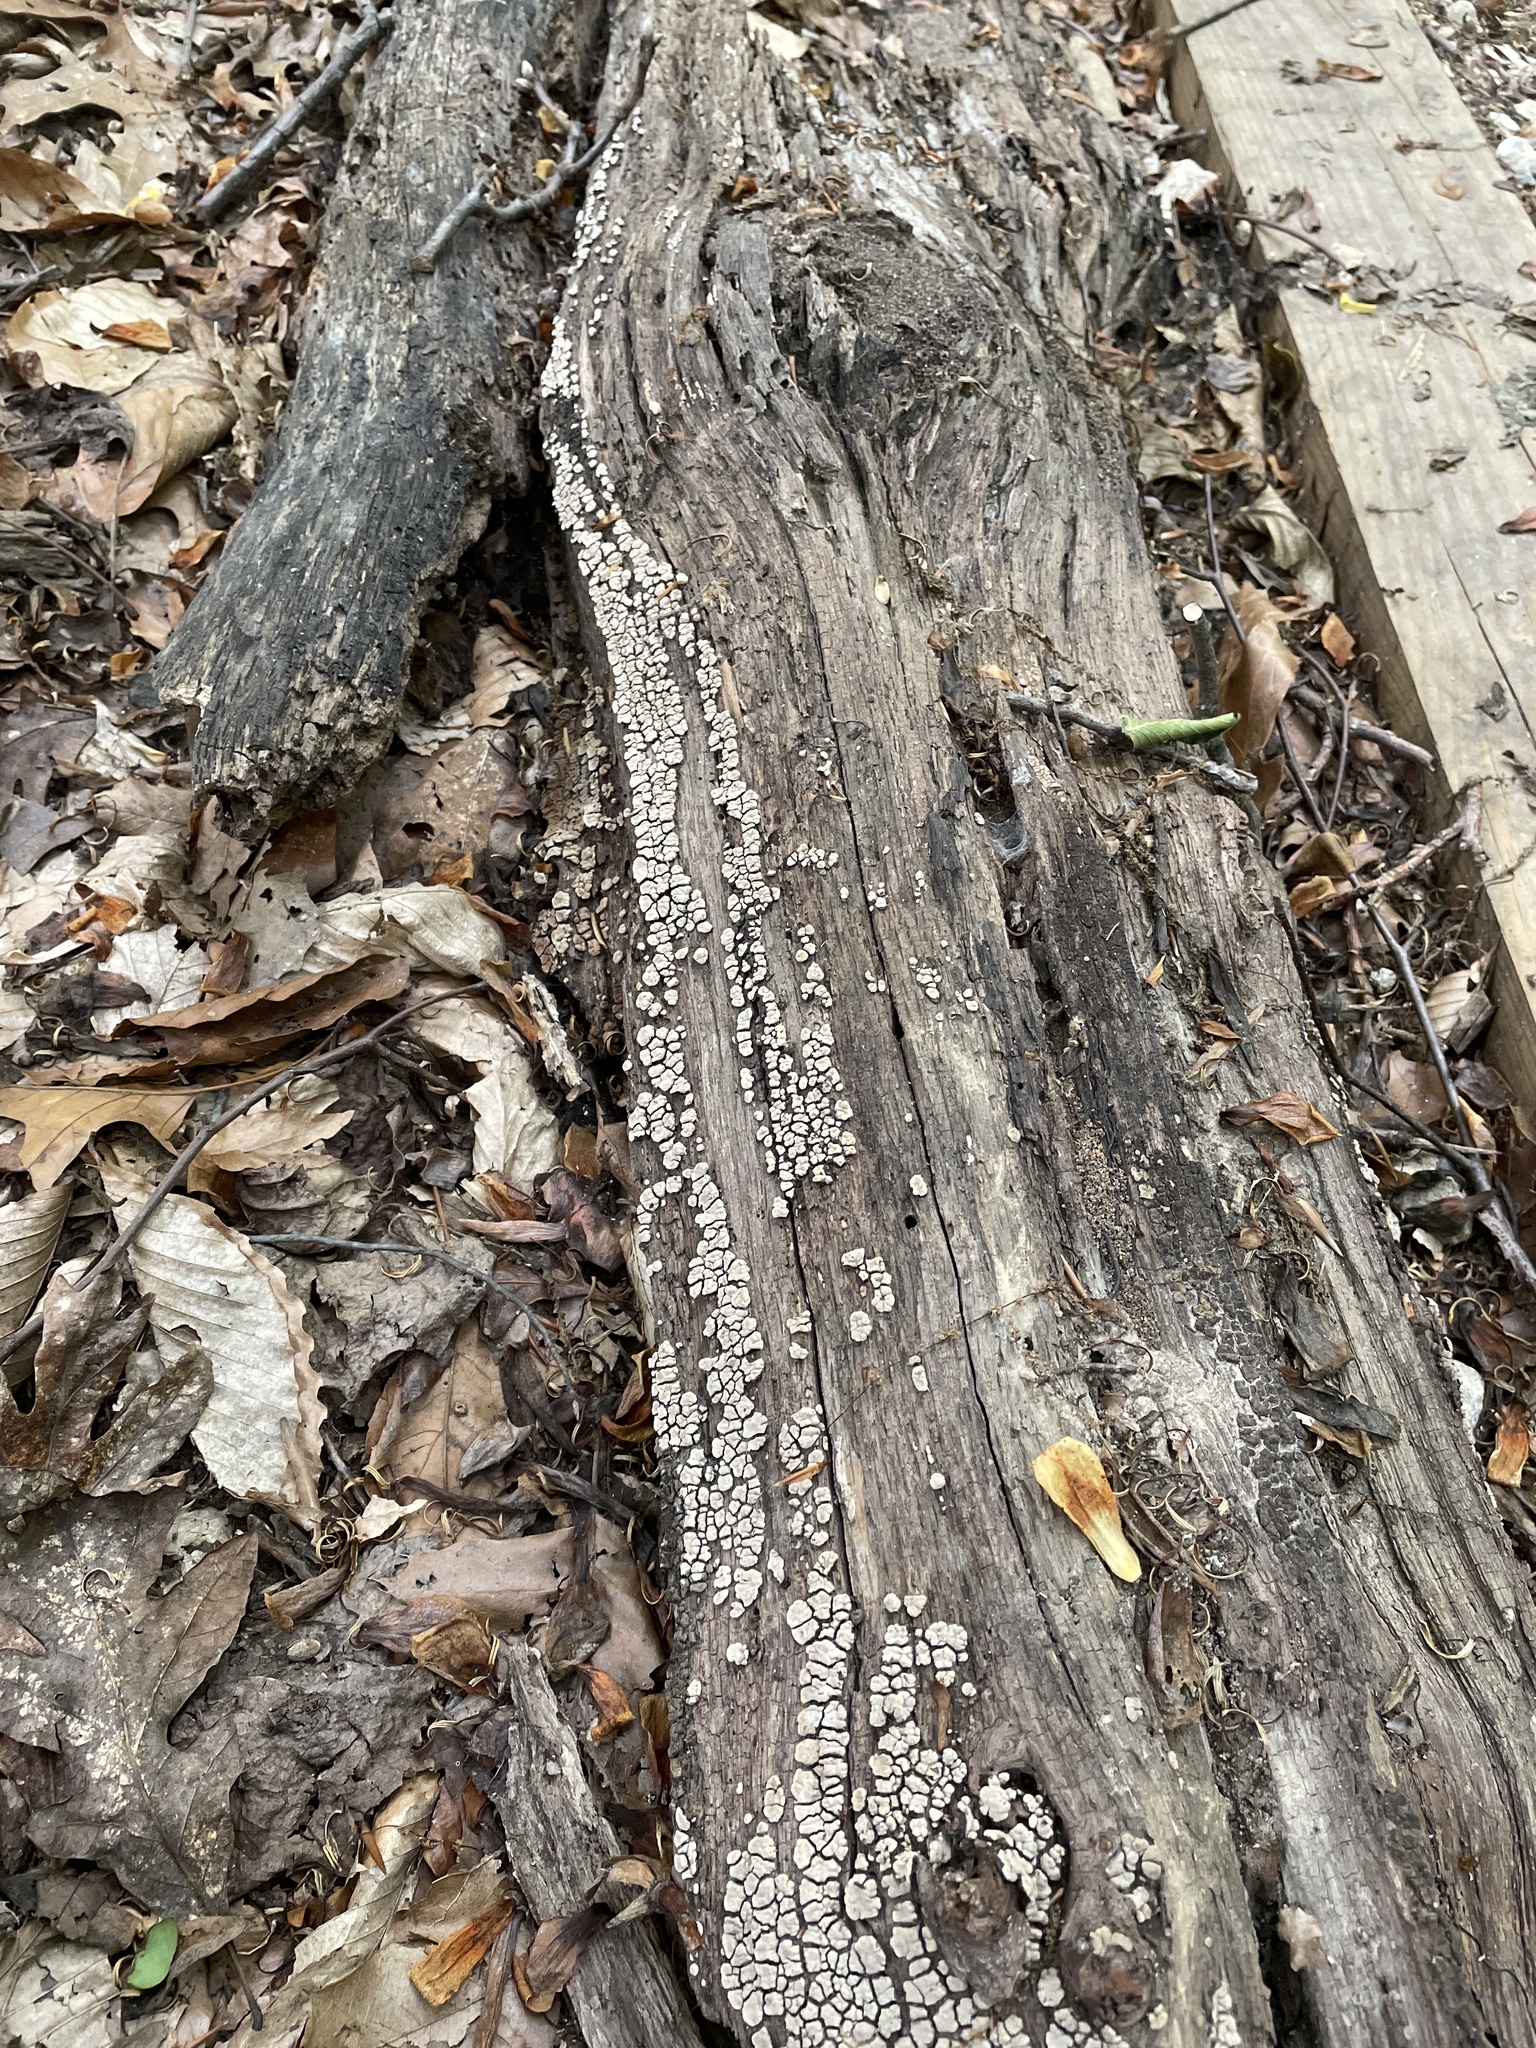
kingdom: Fungi
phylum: Basidiomycota
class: Agaricomycetes
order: Russulales
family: Stereaceae
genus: Xylobolus
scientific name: Xylobolus frustulatus
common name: Ceramic parchment
